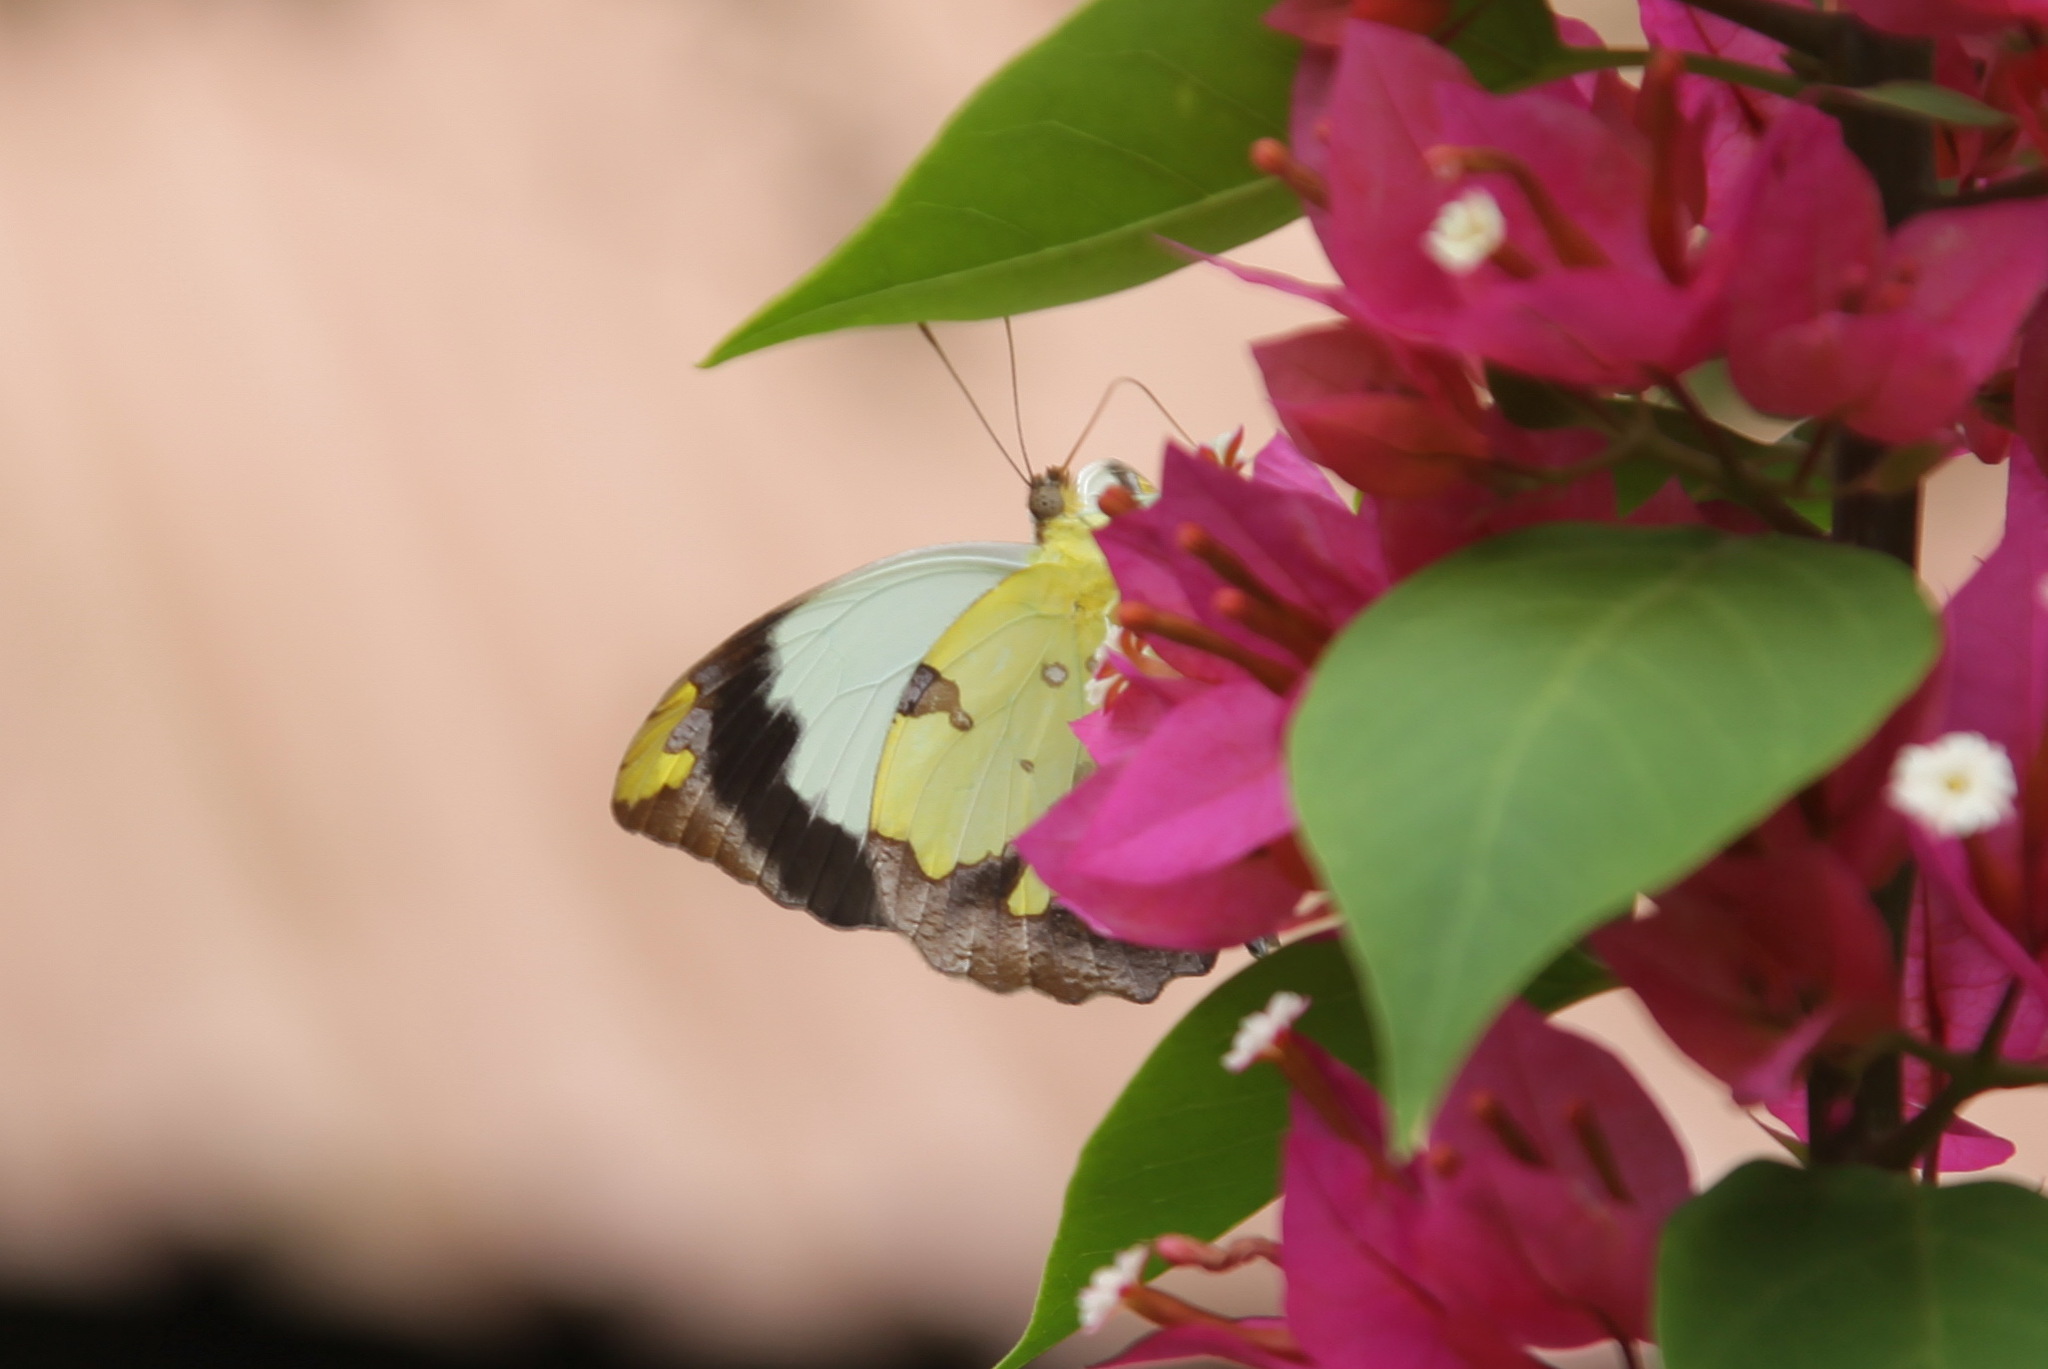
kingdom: Animalia
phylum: Arthropoda
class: Insecta
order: Lepidoptera
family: Pieridae
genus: Eronia
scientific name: Eronia cleodora
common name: Vine-leaf vagrant
